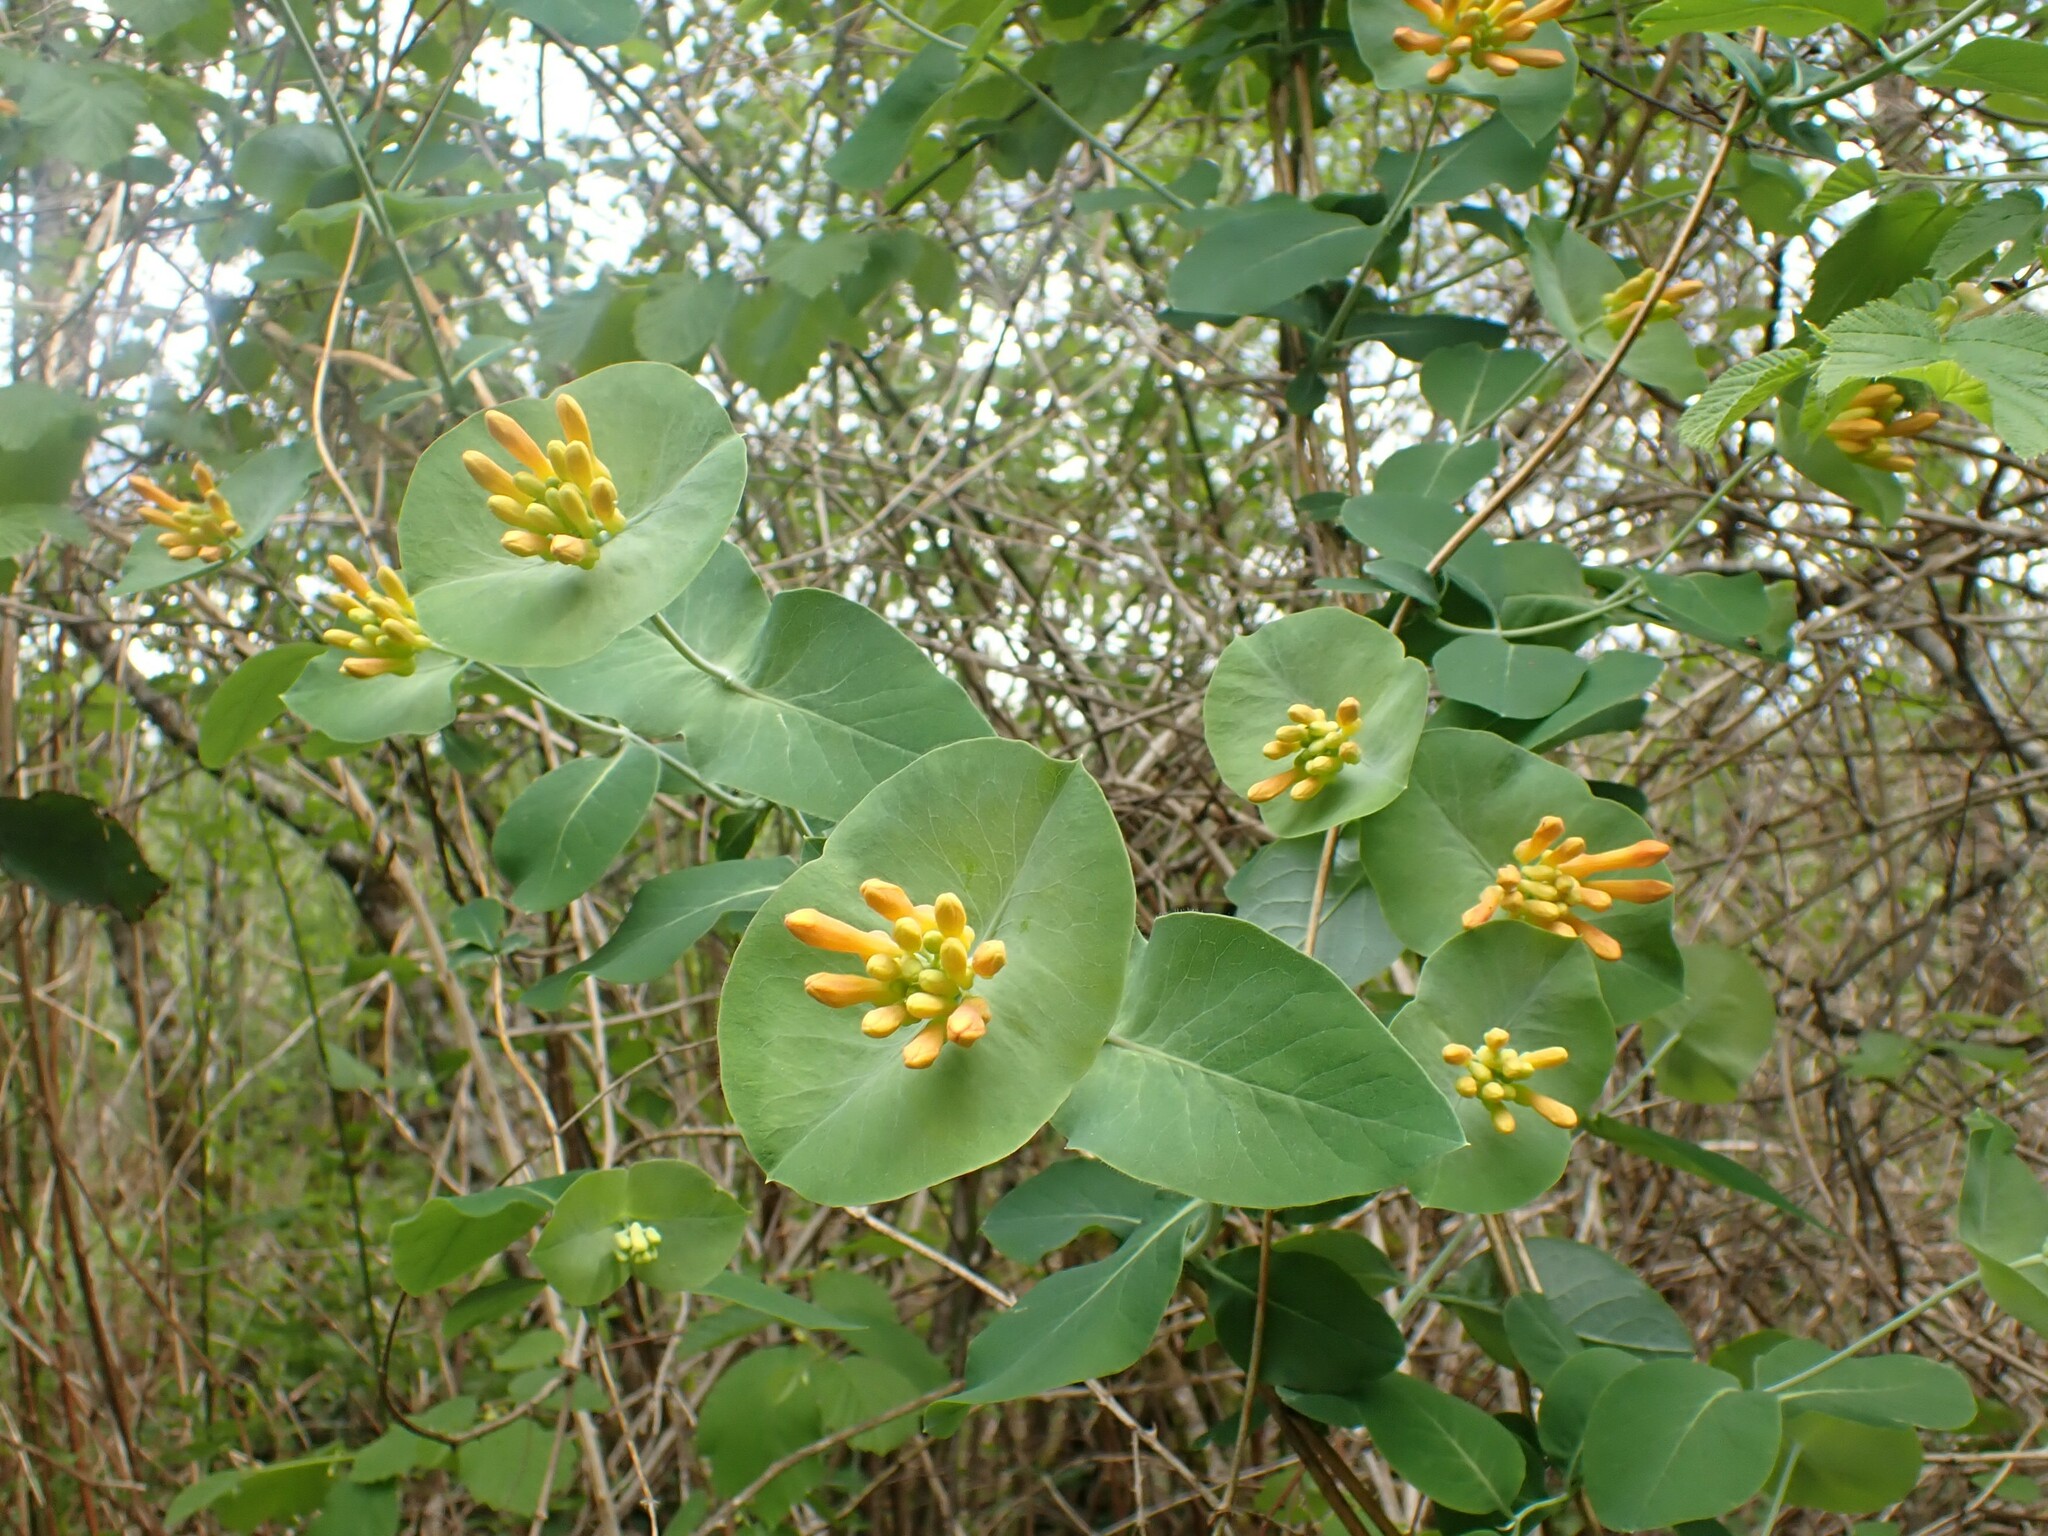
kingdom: Plantae
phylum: Tracheophyta
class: Magnoliopsida
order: Dipsacales
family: Caprifoliaceae
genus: Lonicera
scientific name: Lonicera ciliosa
